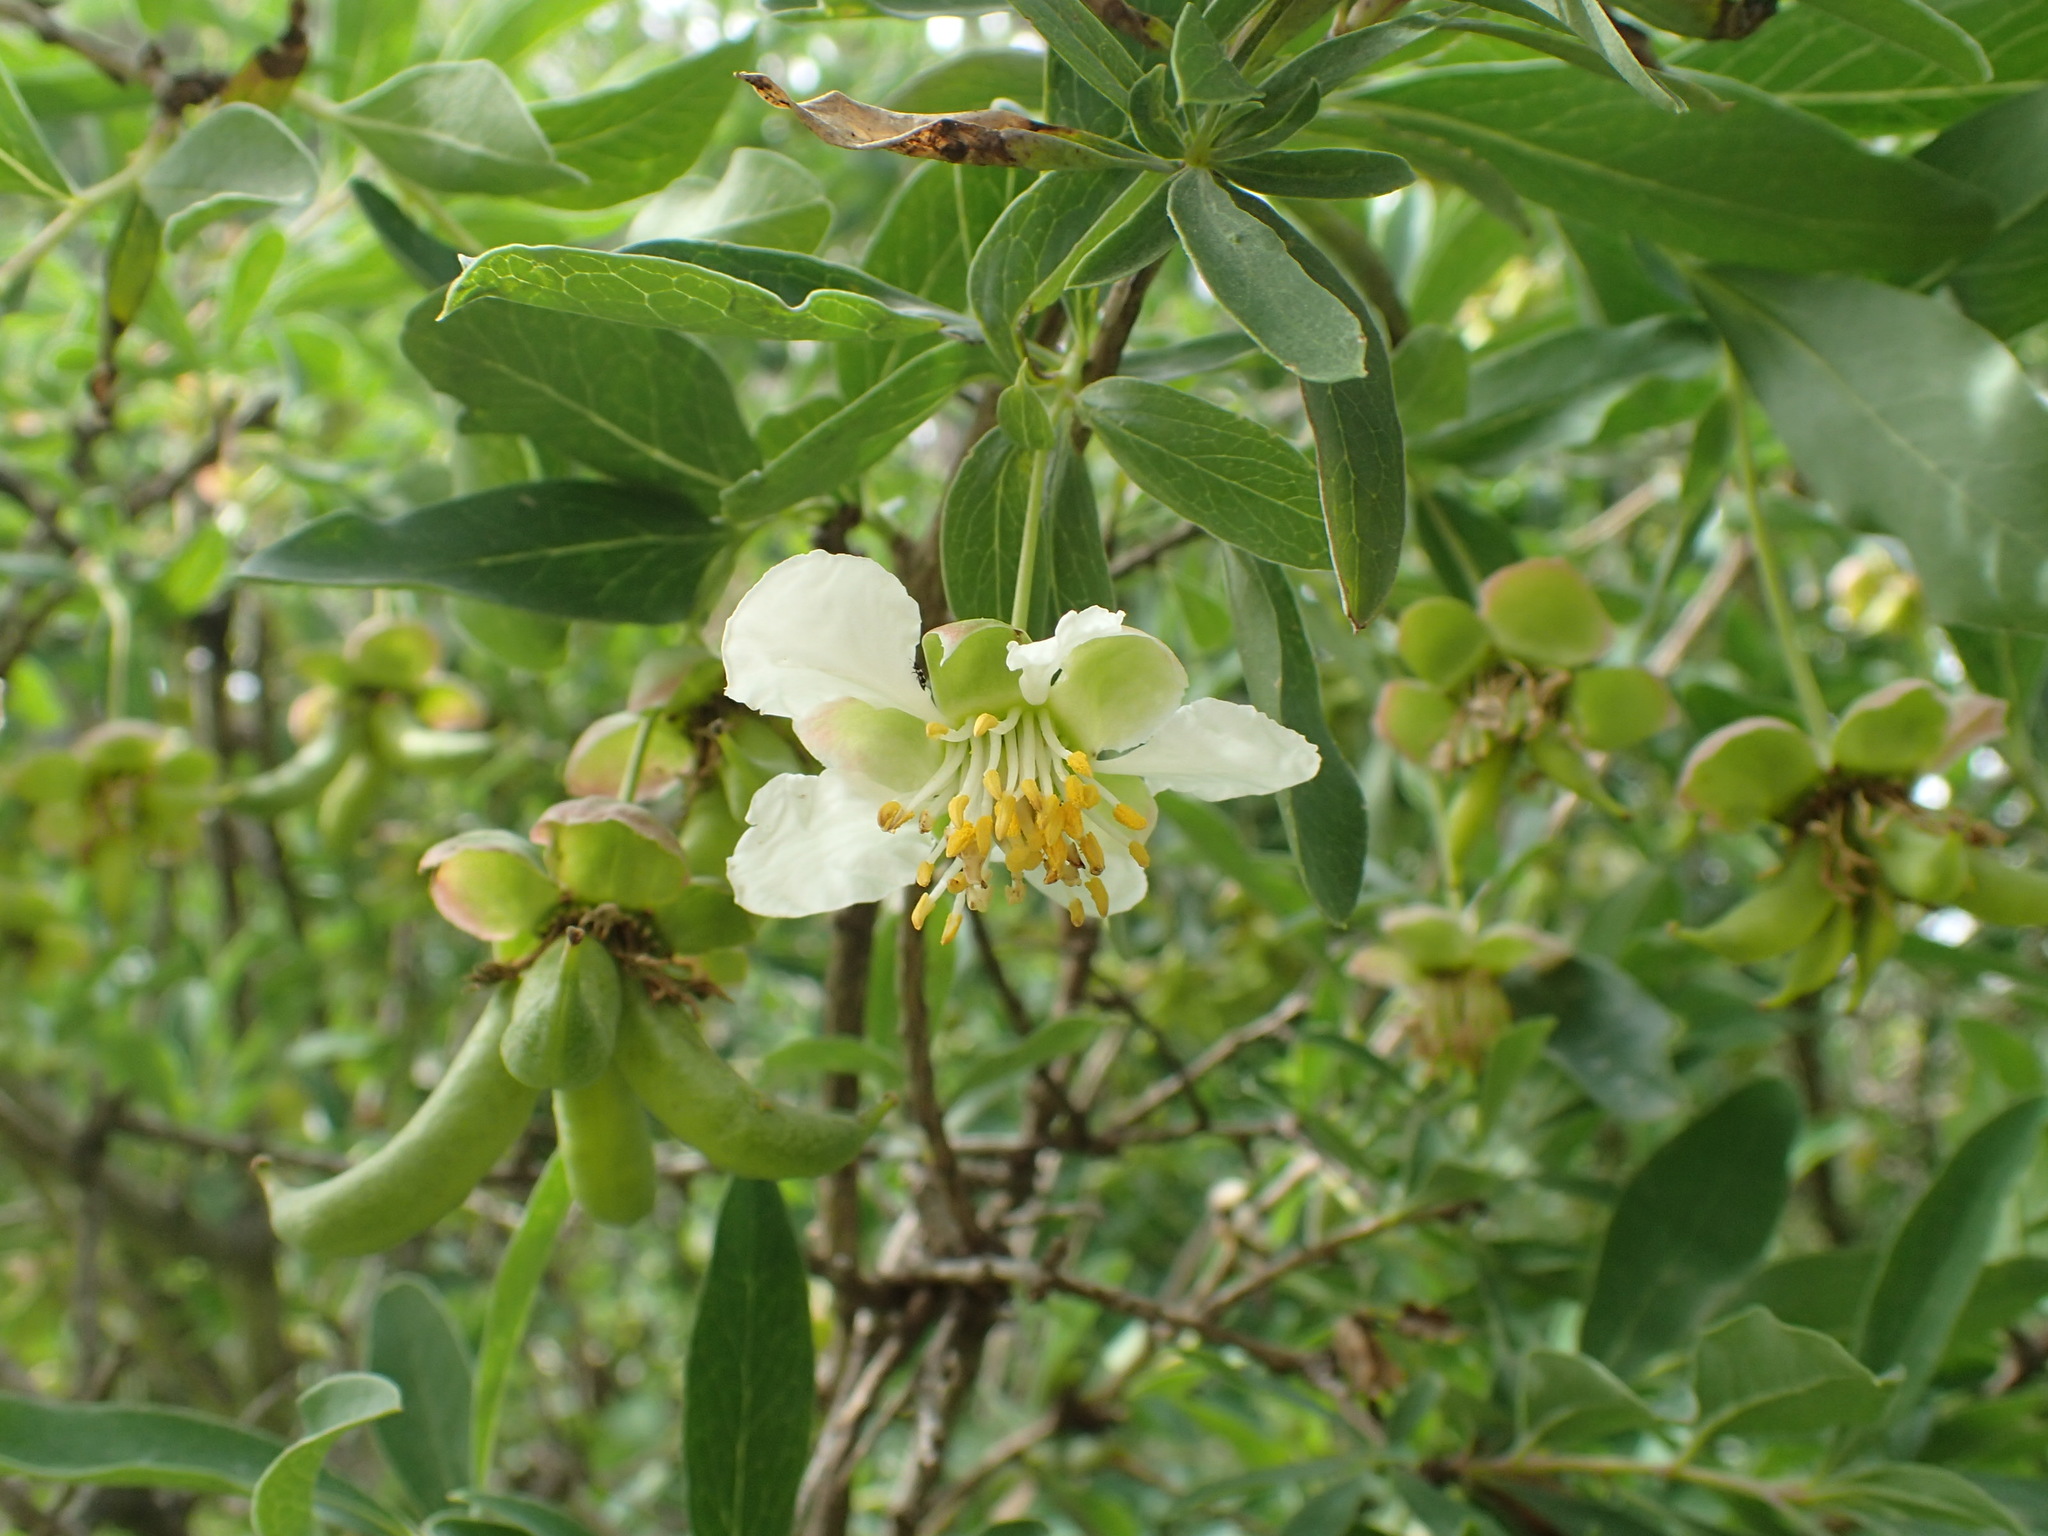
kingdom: Plantae
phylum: Tracheophyta
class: Magnoliopsida
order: Crossosomatales
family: Crossosomataceae
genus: Crossosoma
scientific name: Crossosoma californicum
